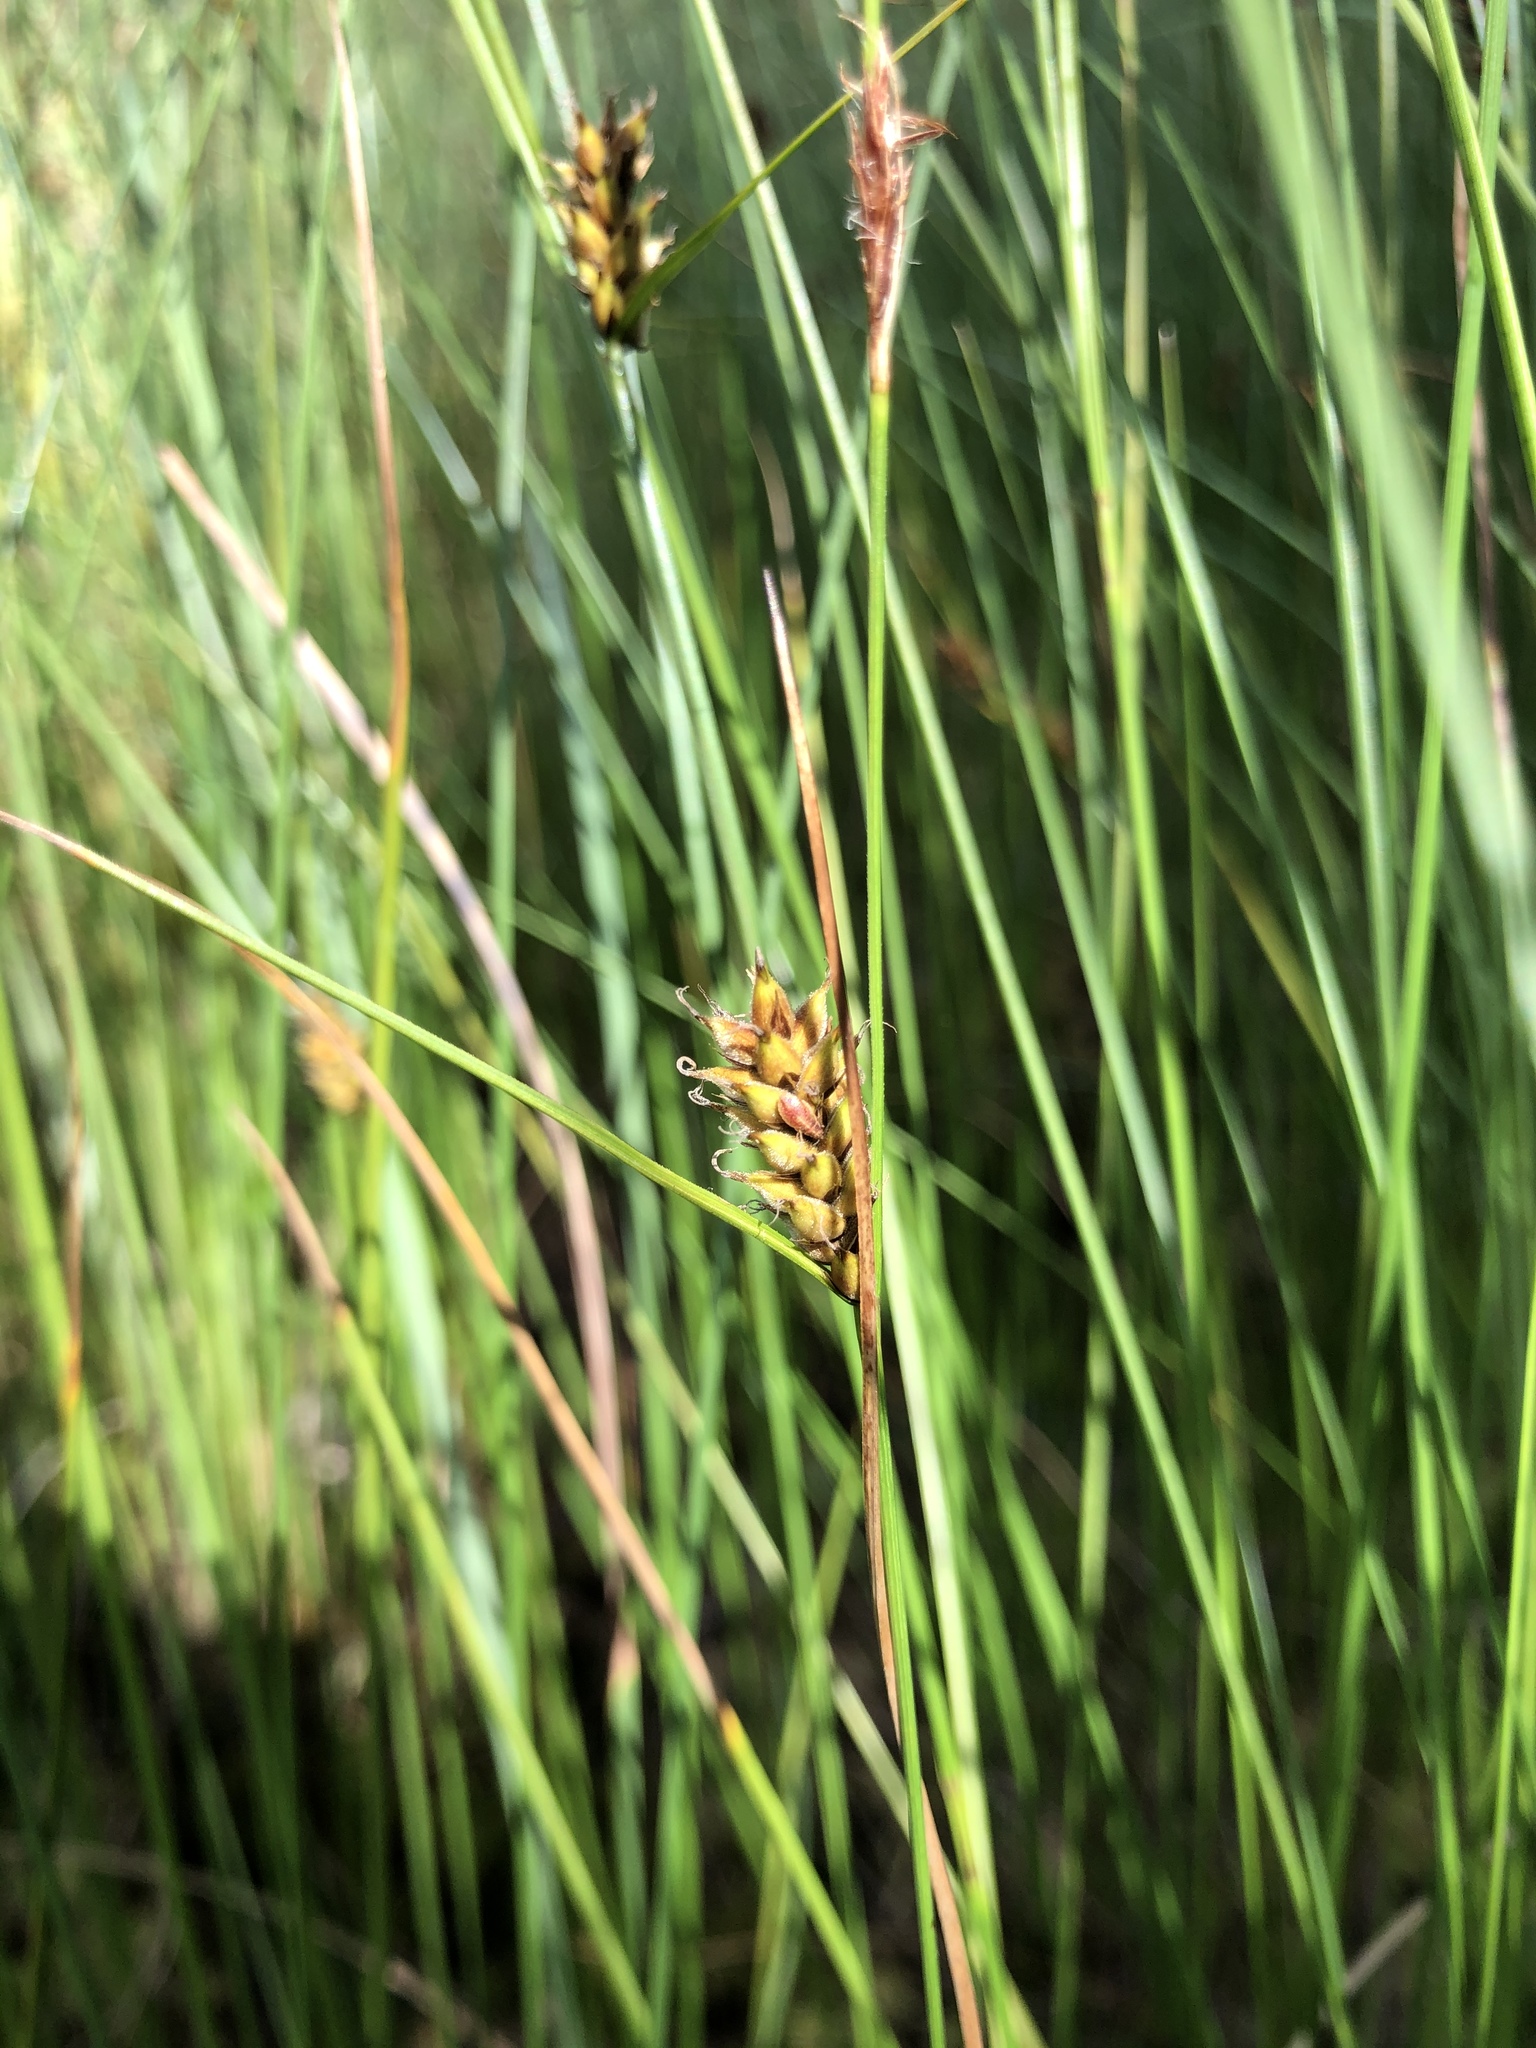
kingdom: Plantae
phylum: Tracheophyta
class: Liliopsida
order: Poales
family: Cyperaceae
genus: Carex
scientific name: Carex lasiocarpa
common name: Slender sedge
